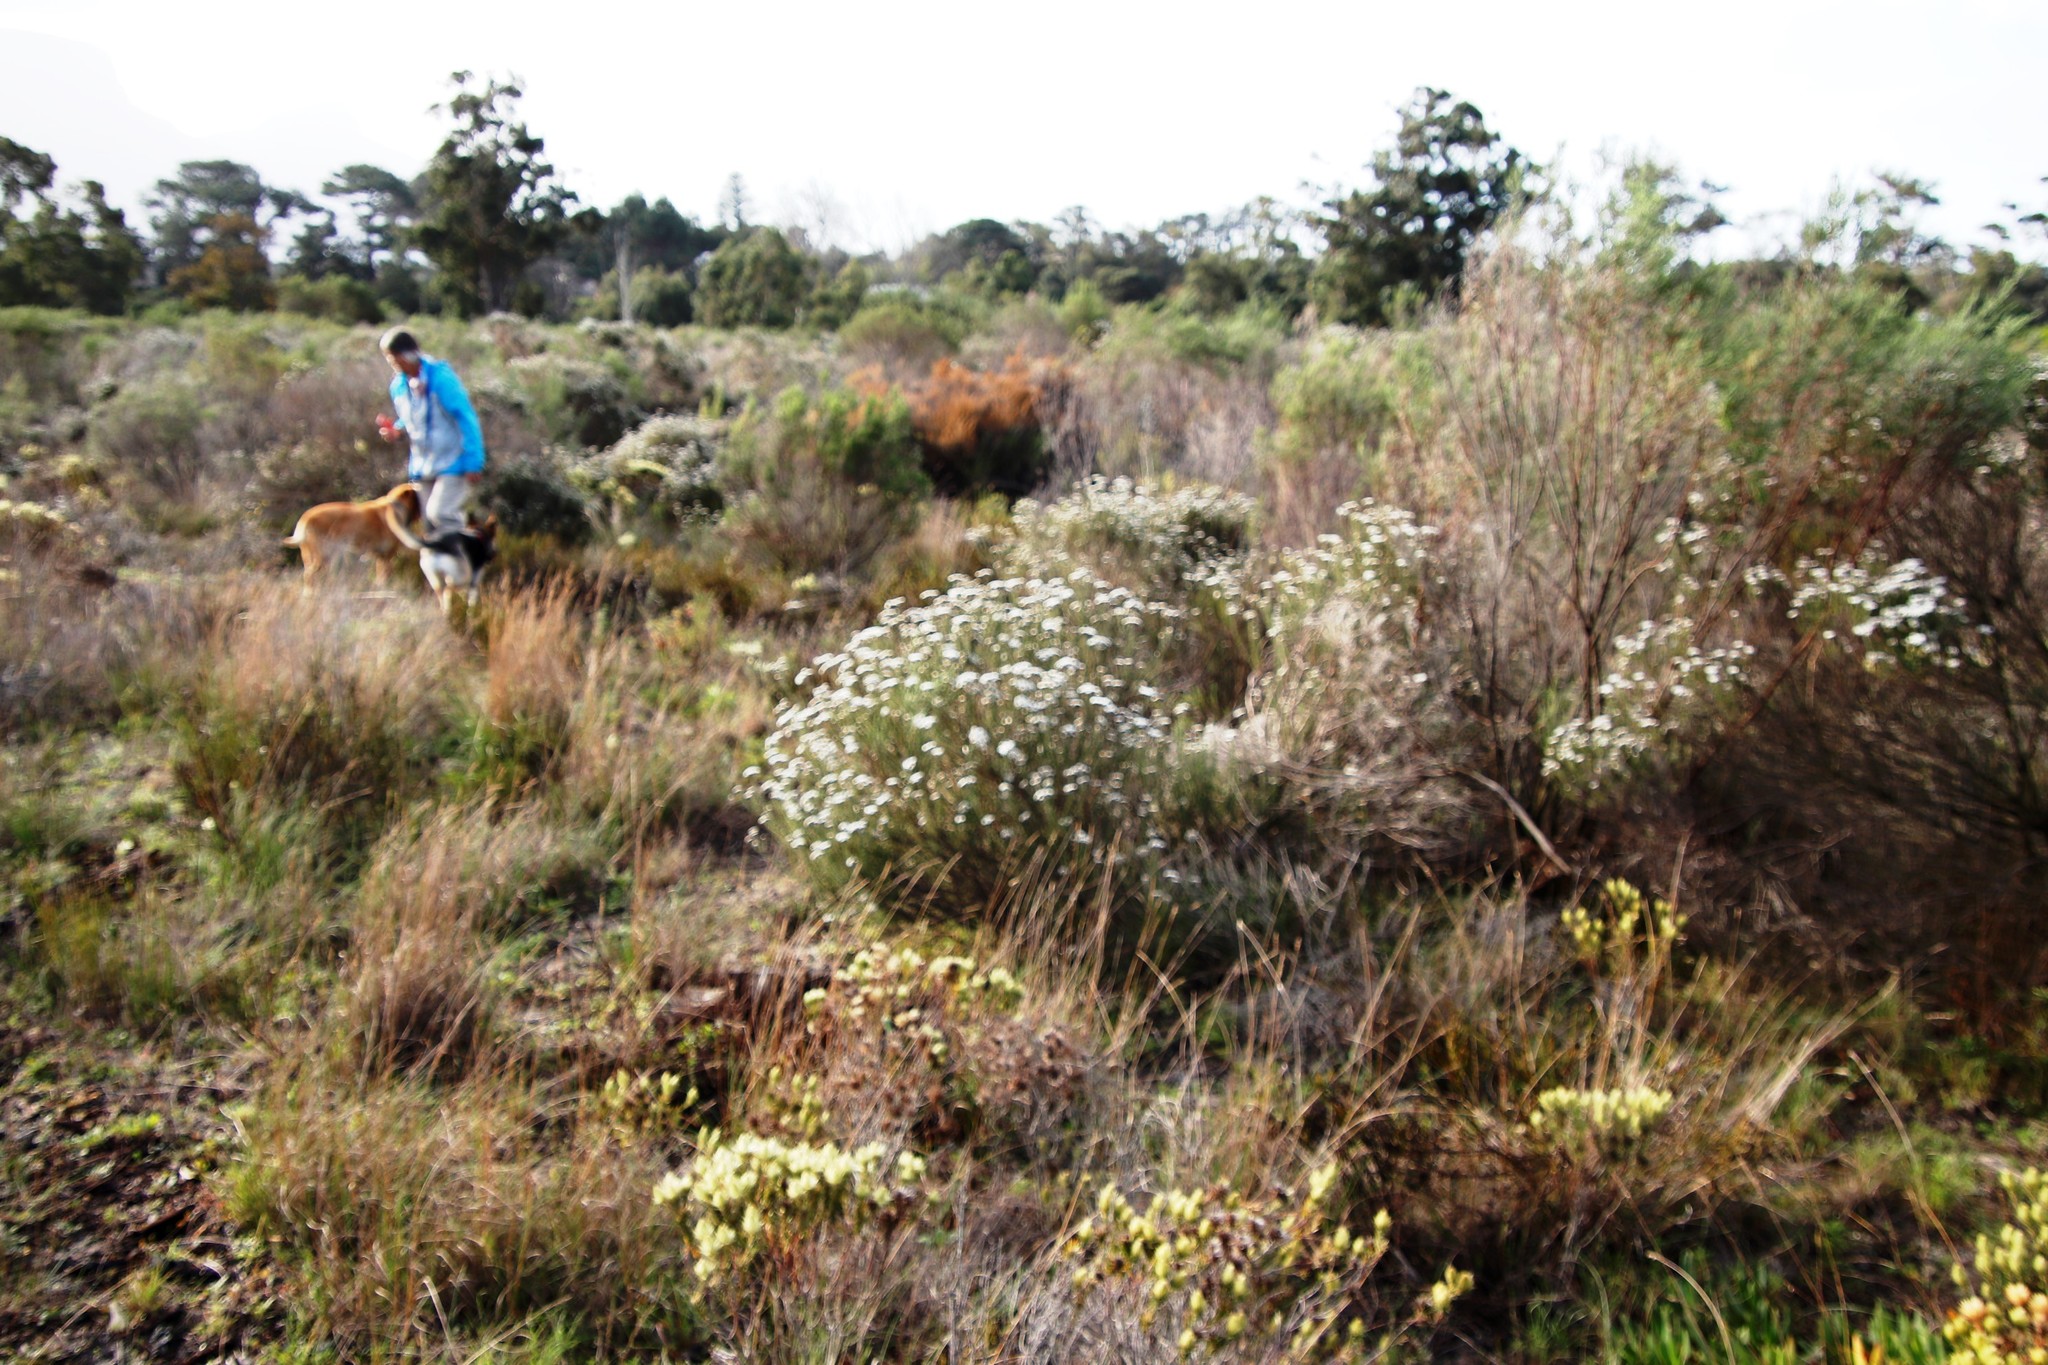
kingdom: Plantae
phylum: Tracheophyta
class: Magnoliopsida
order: Asterales
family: Asteraceae
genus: Metalasia
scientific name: Metalasia densa
